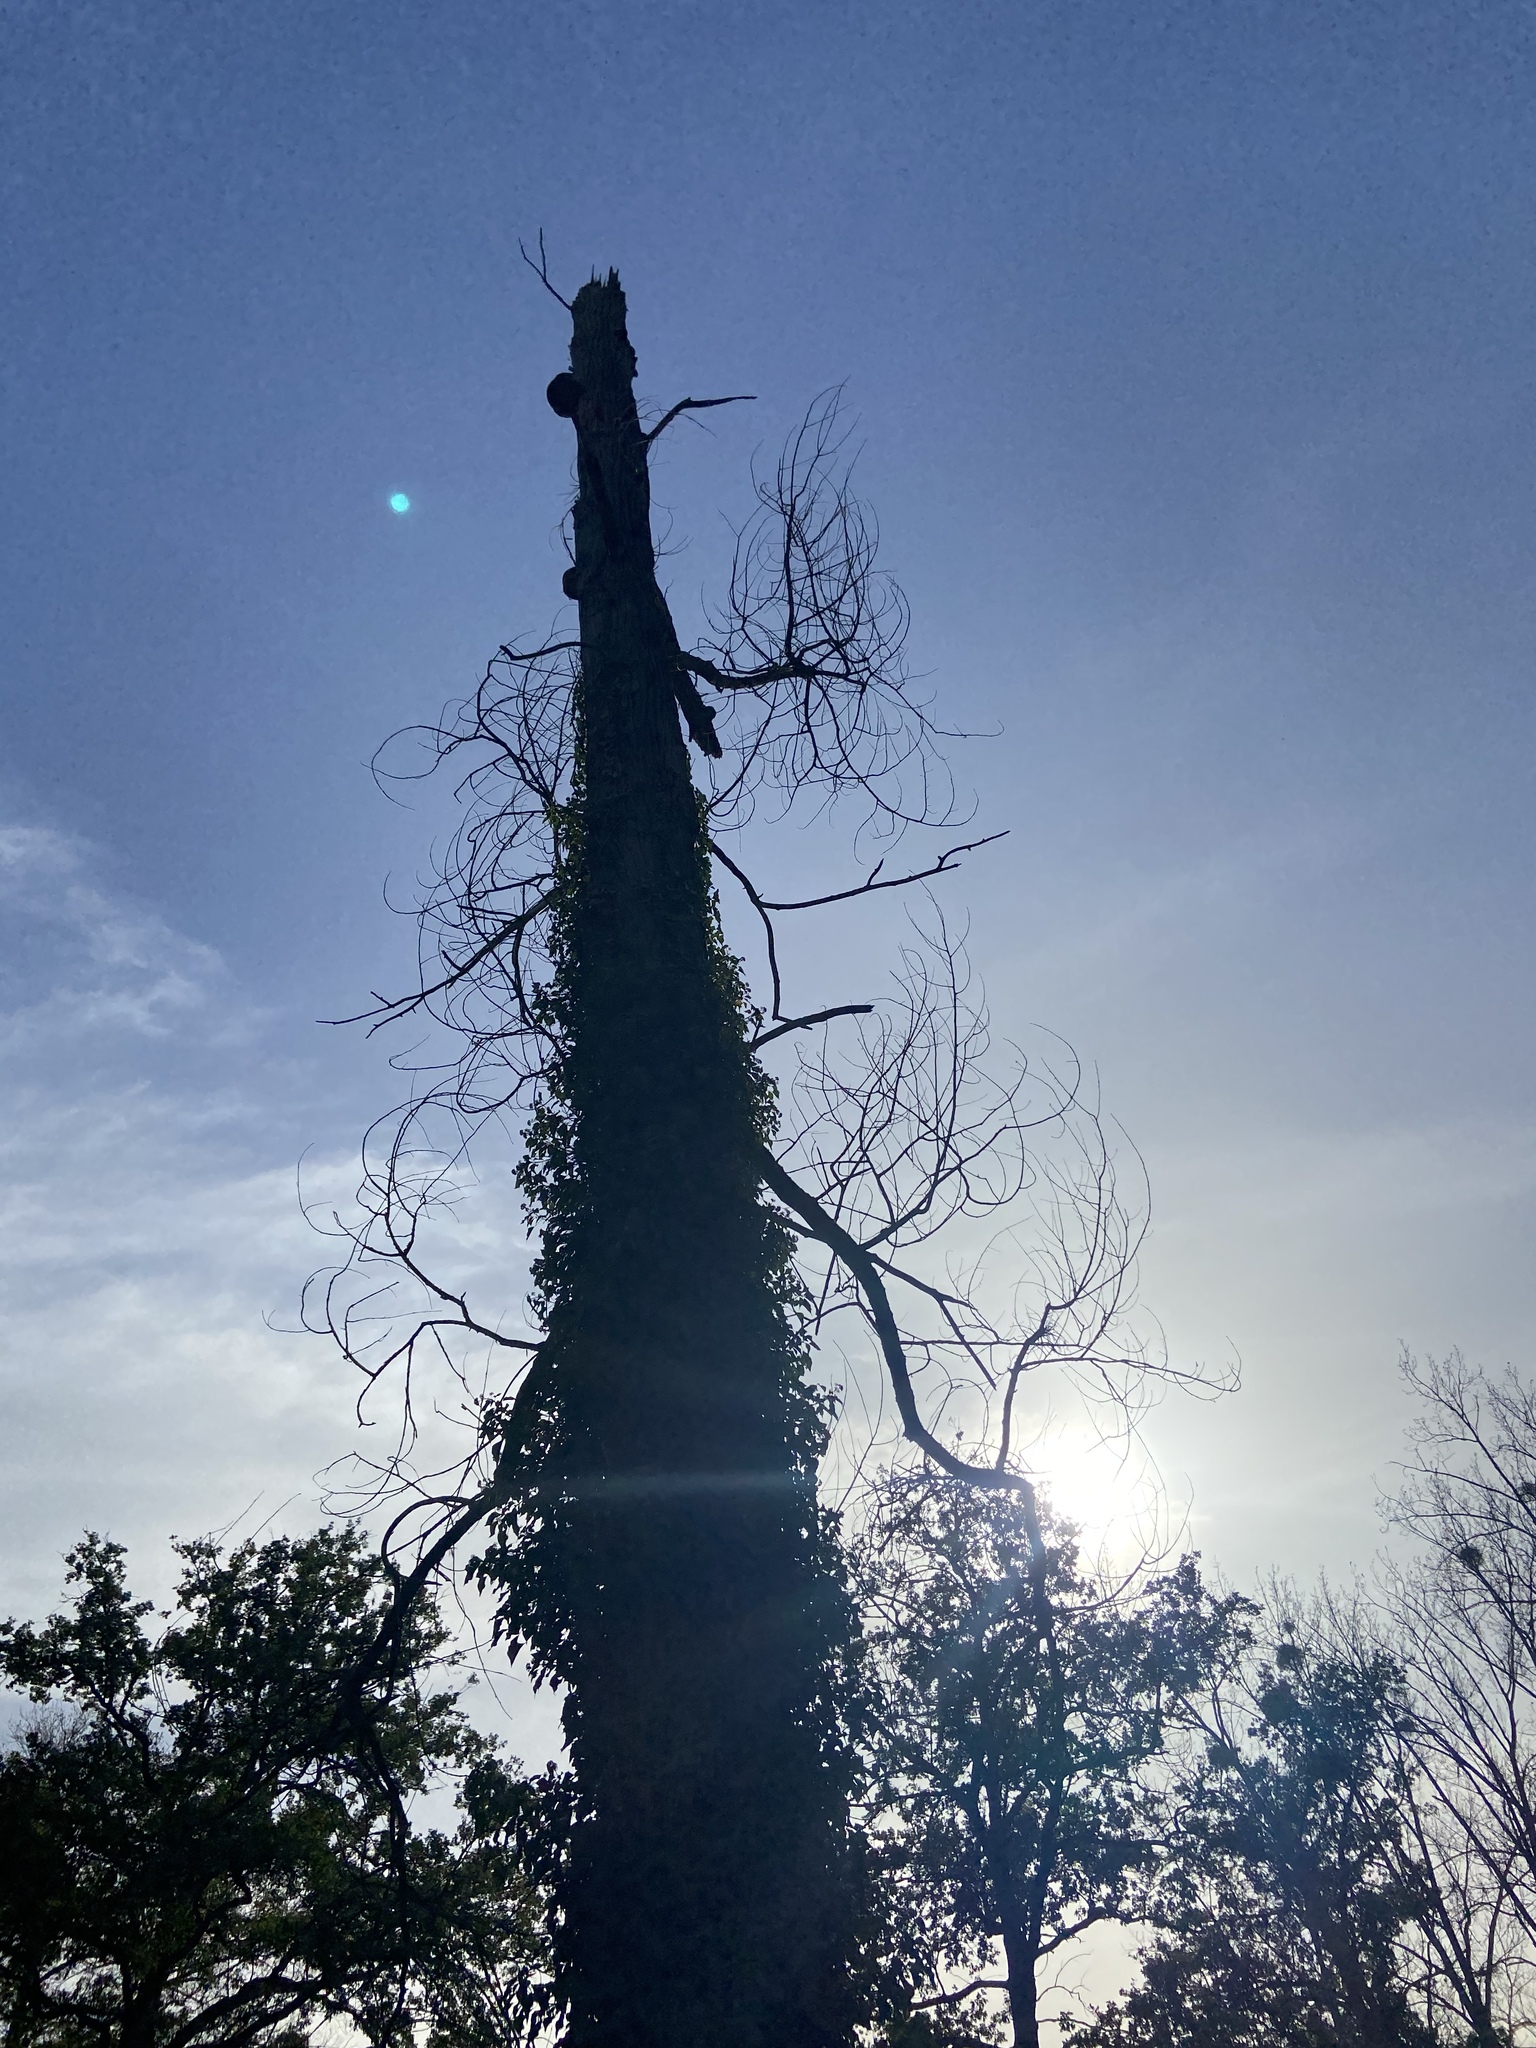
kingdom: Animalia
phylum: Arthropoda
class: Insecta
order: Hymenoptera
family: Vespidae
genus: Vespa
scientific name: Vespa crabro
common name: Hornet
